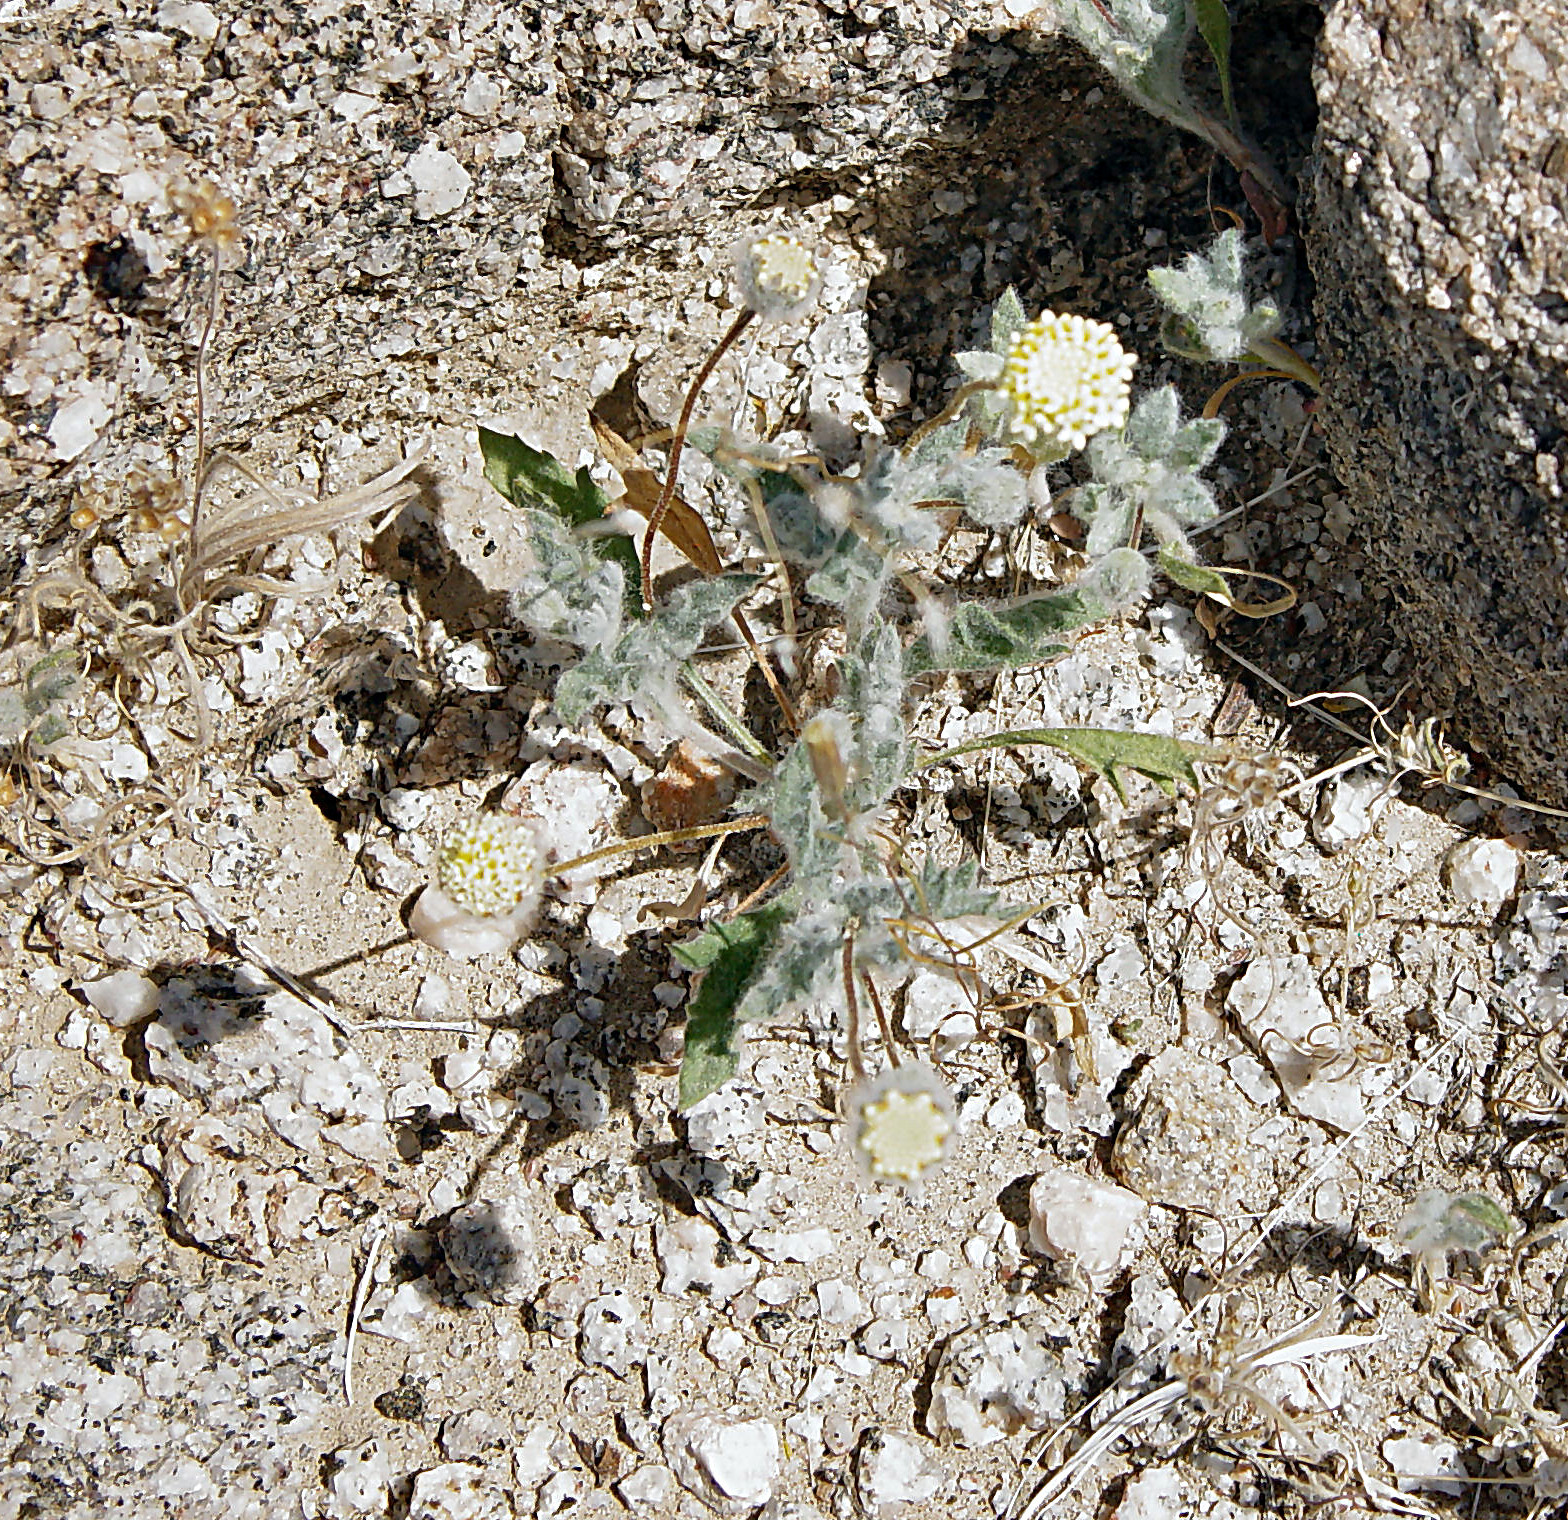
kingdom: Plantae
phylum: Tracheophyta
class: Magnoliopsida
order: Asterales
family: Asteraceae
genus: Trichoptilium
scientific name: Trichoptilium incisum
